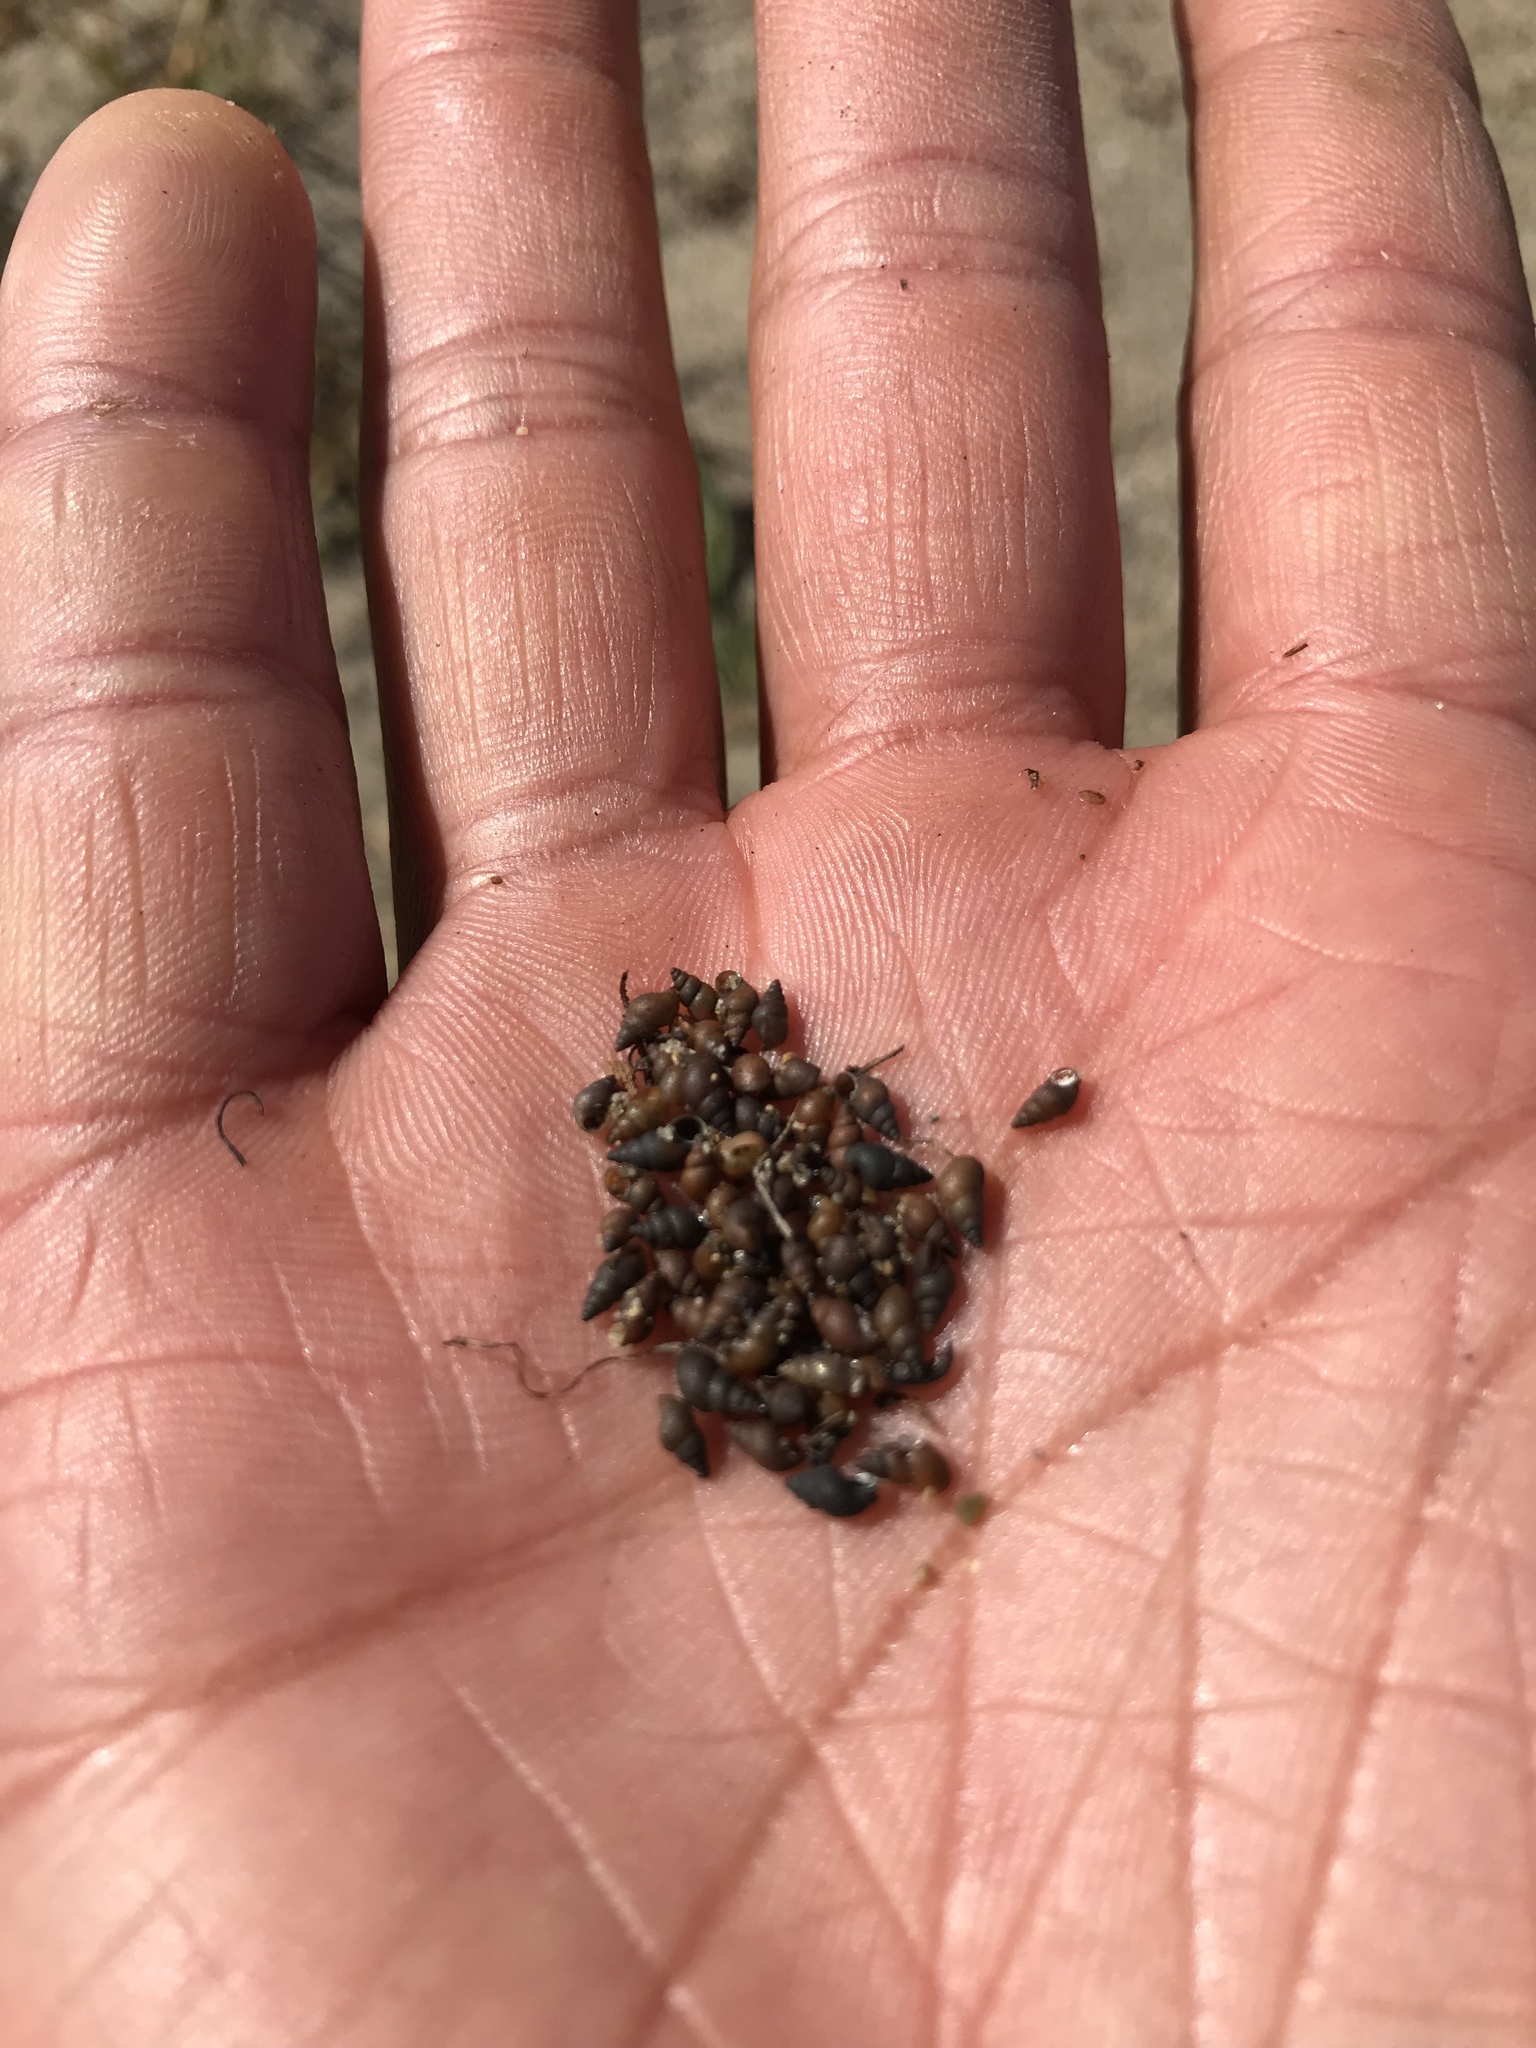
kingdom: Animalia
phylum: Mollusca
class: Gastropoda
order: Littorinimorpha
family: Tateidae
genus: Potamopyrgus
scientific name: Potamopyrgus antipodarum
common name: Jenkins' spire snail
